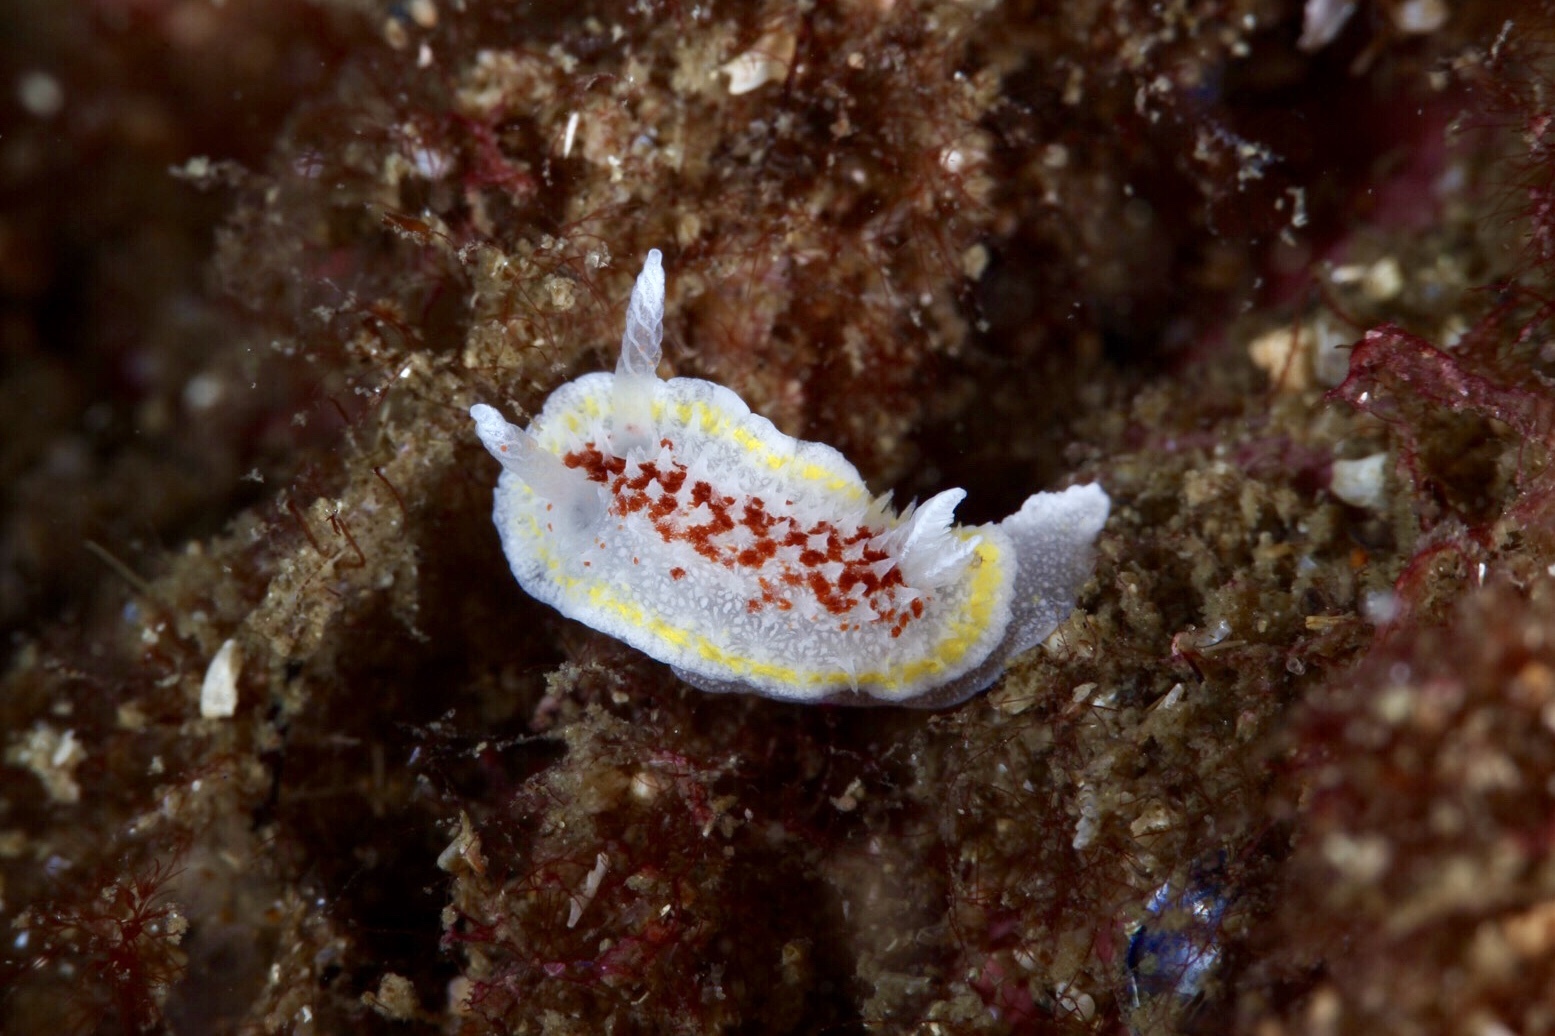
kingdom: Animalia
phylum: Mollusca
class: Gastropoda
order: Nudibranchia
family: Calycidorididae
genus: Diaphorodoris
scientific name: Diaphorodoris luteocincta
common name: Fried egg nudibranch
